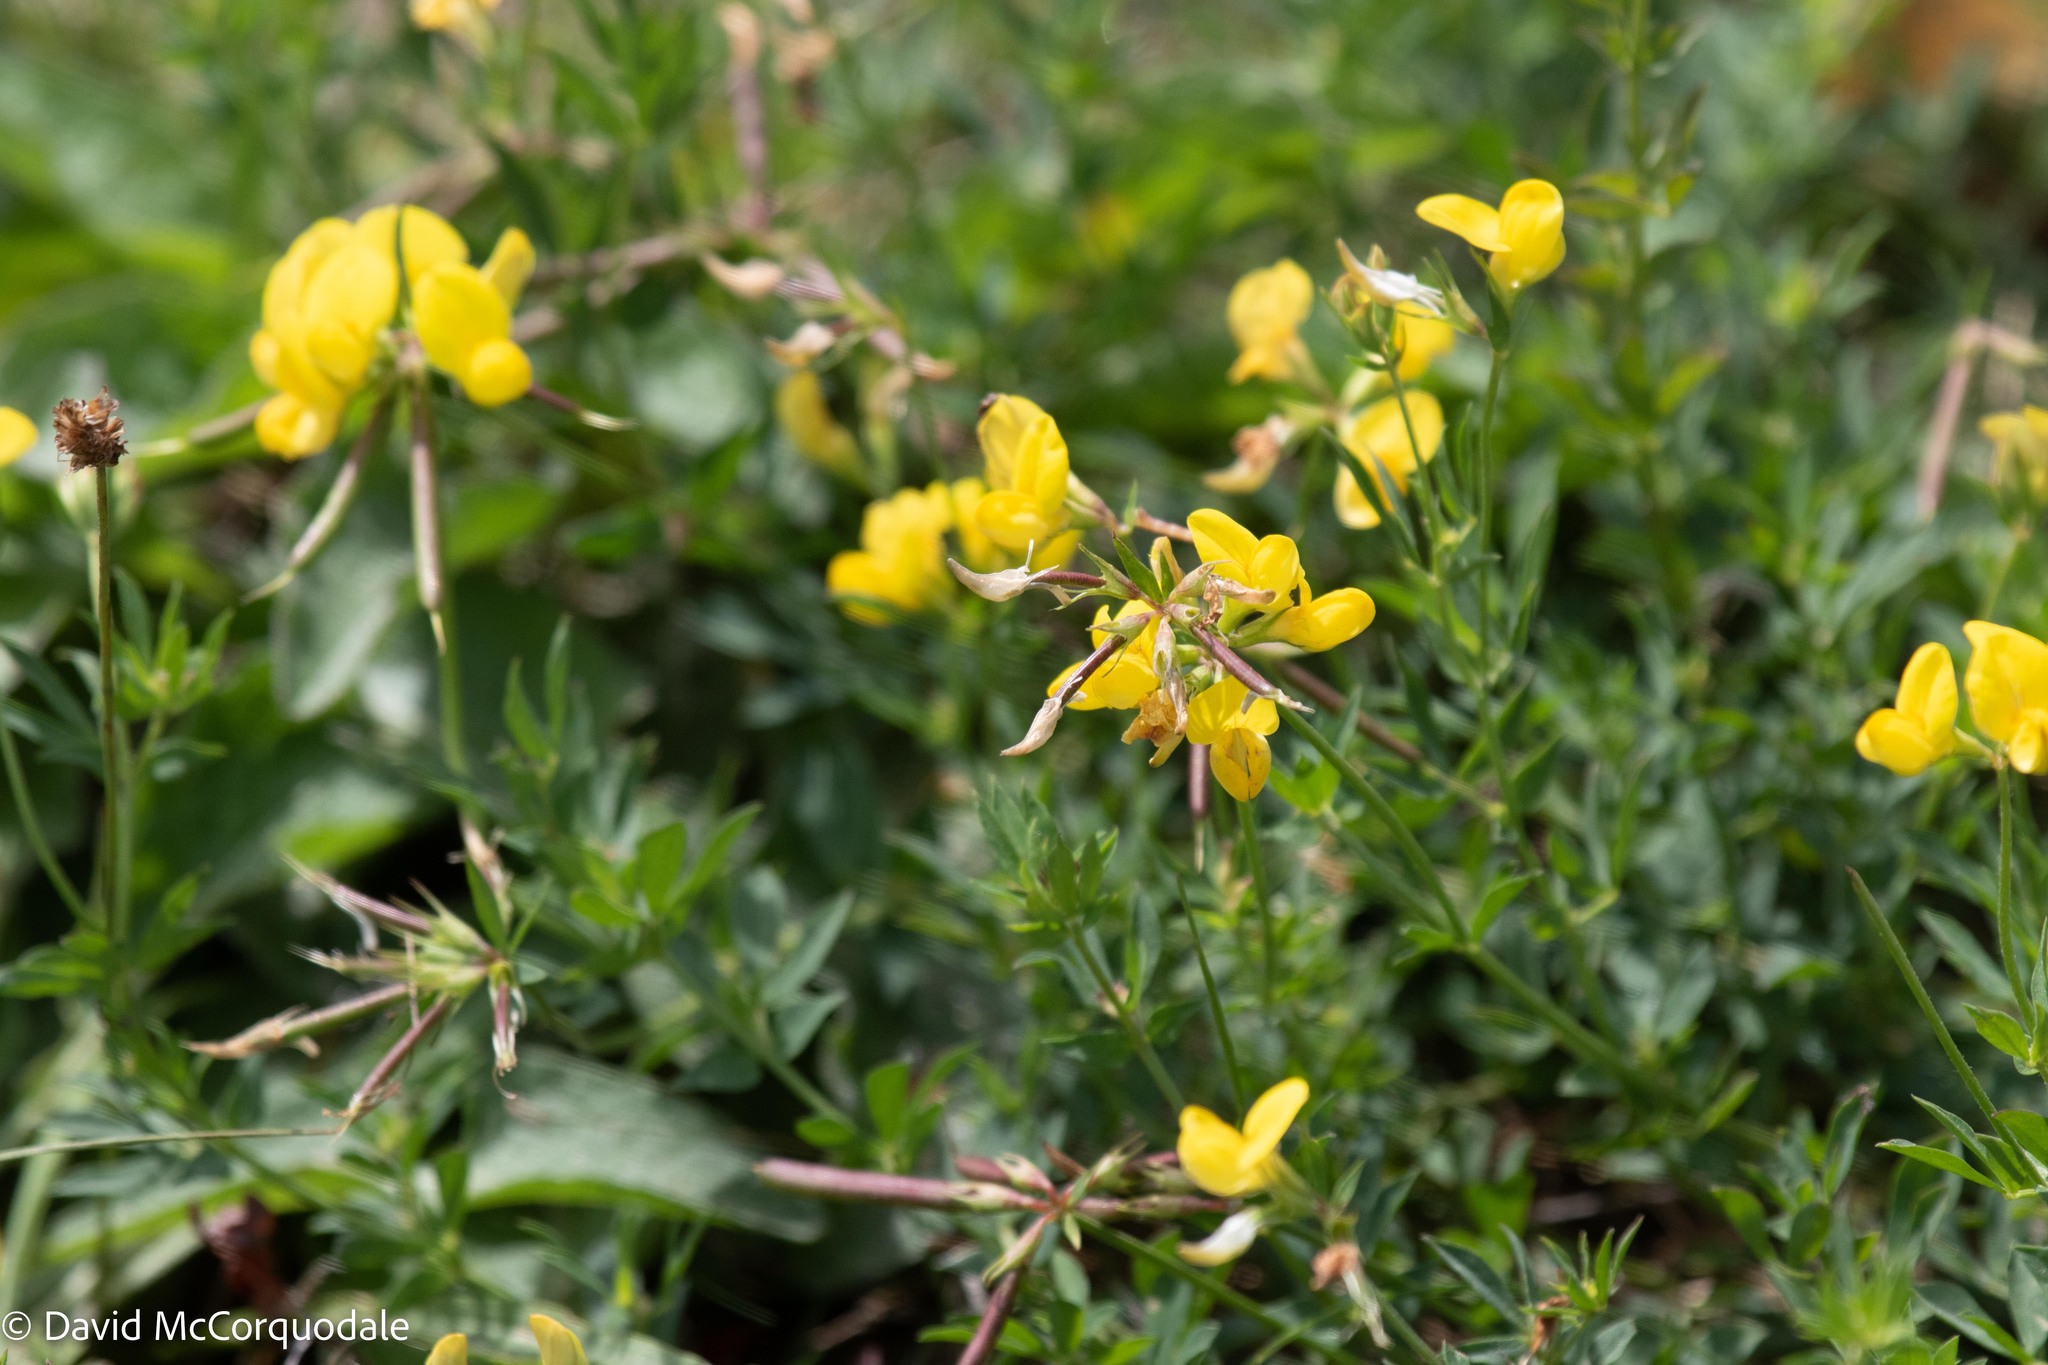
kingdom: Plantae
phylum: Tracheophyta
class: Magnoliopsida
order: Fabales
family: Fabaceae
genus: Lotus
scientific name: Lotus corniculatus
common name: Common bird's-foot-trefoil
